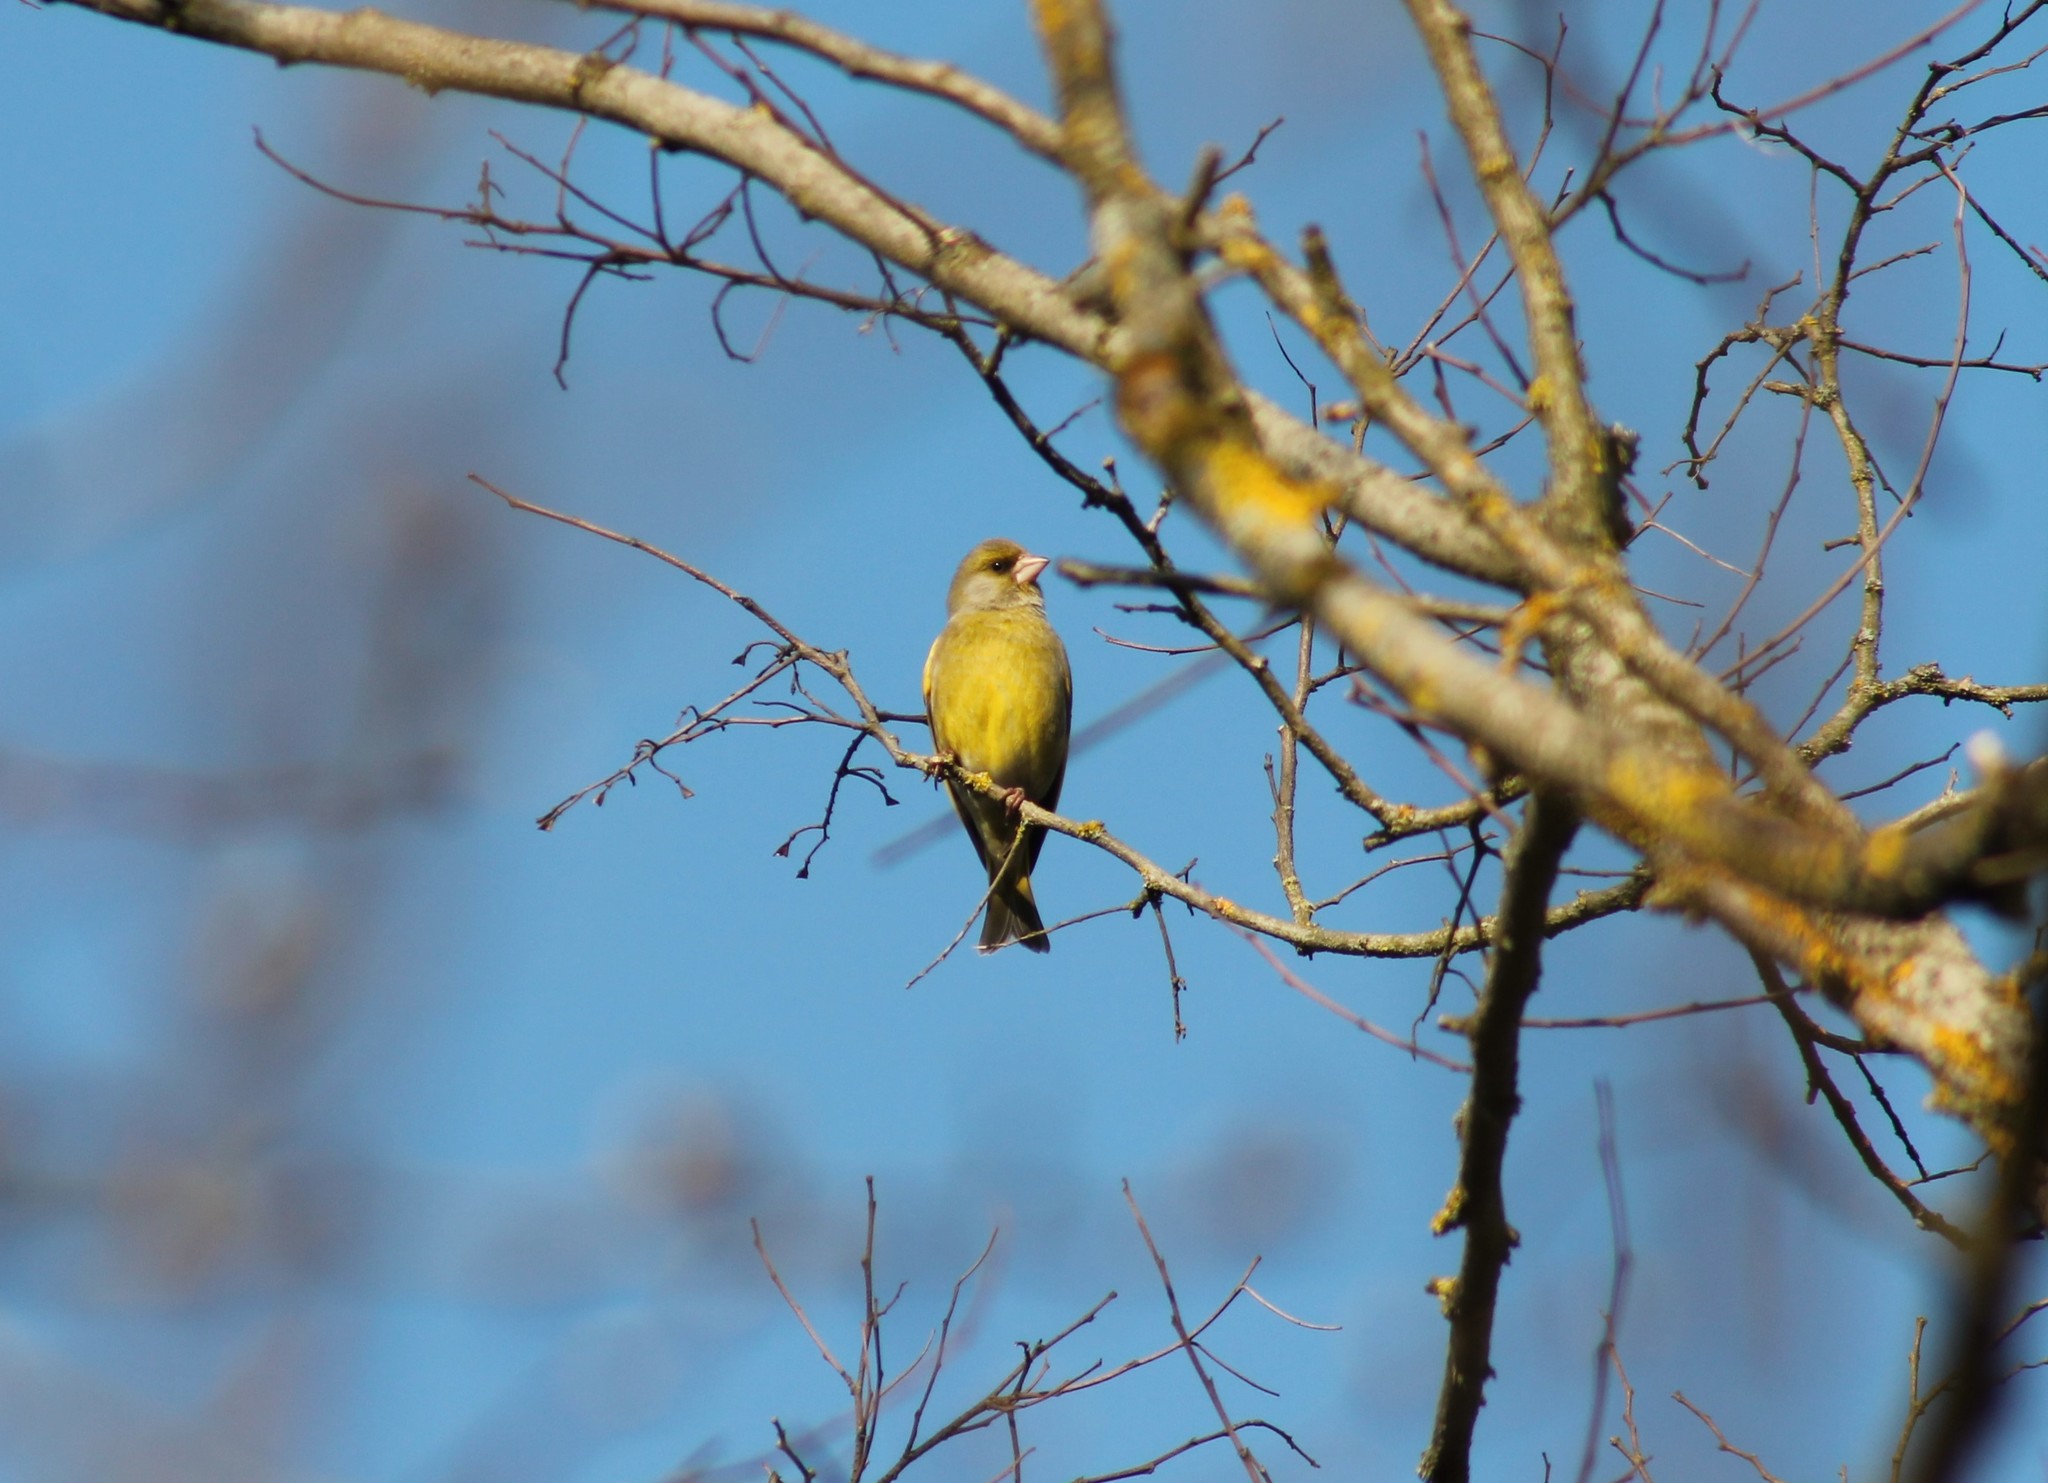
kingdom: Plantae
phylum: Tracheophyta
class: Liliopsida
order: Poales
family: Poaceae
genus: Chloris
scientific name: Chloris chloris
